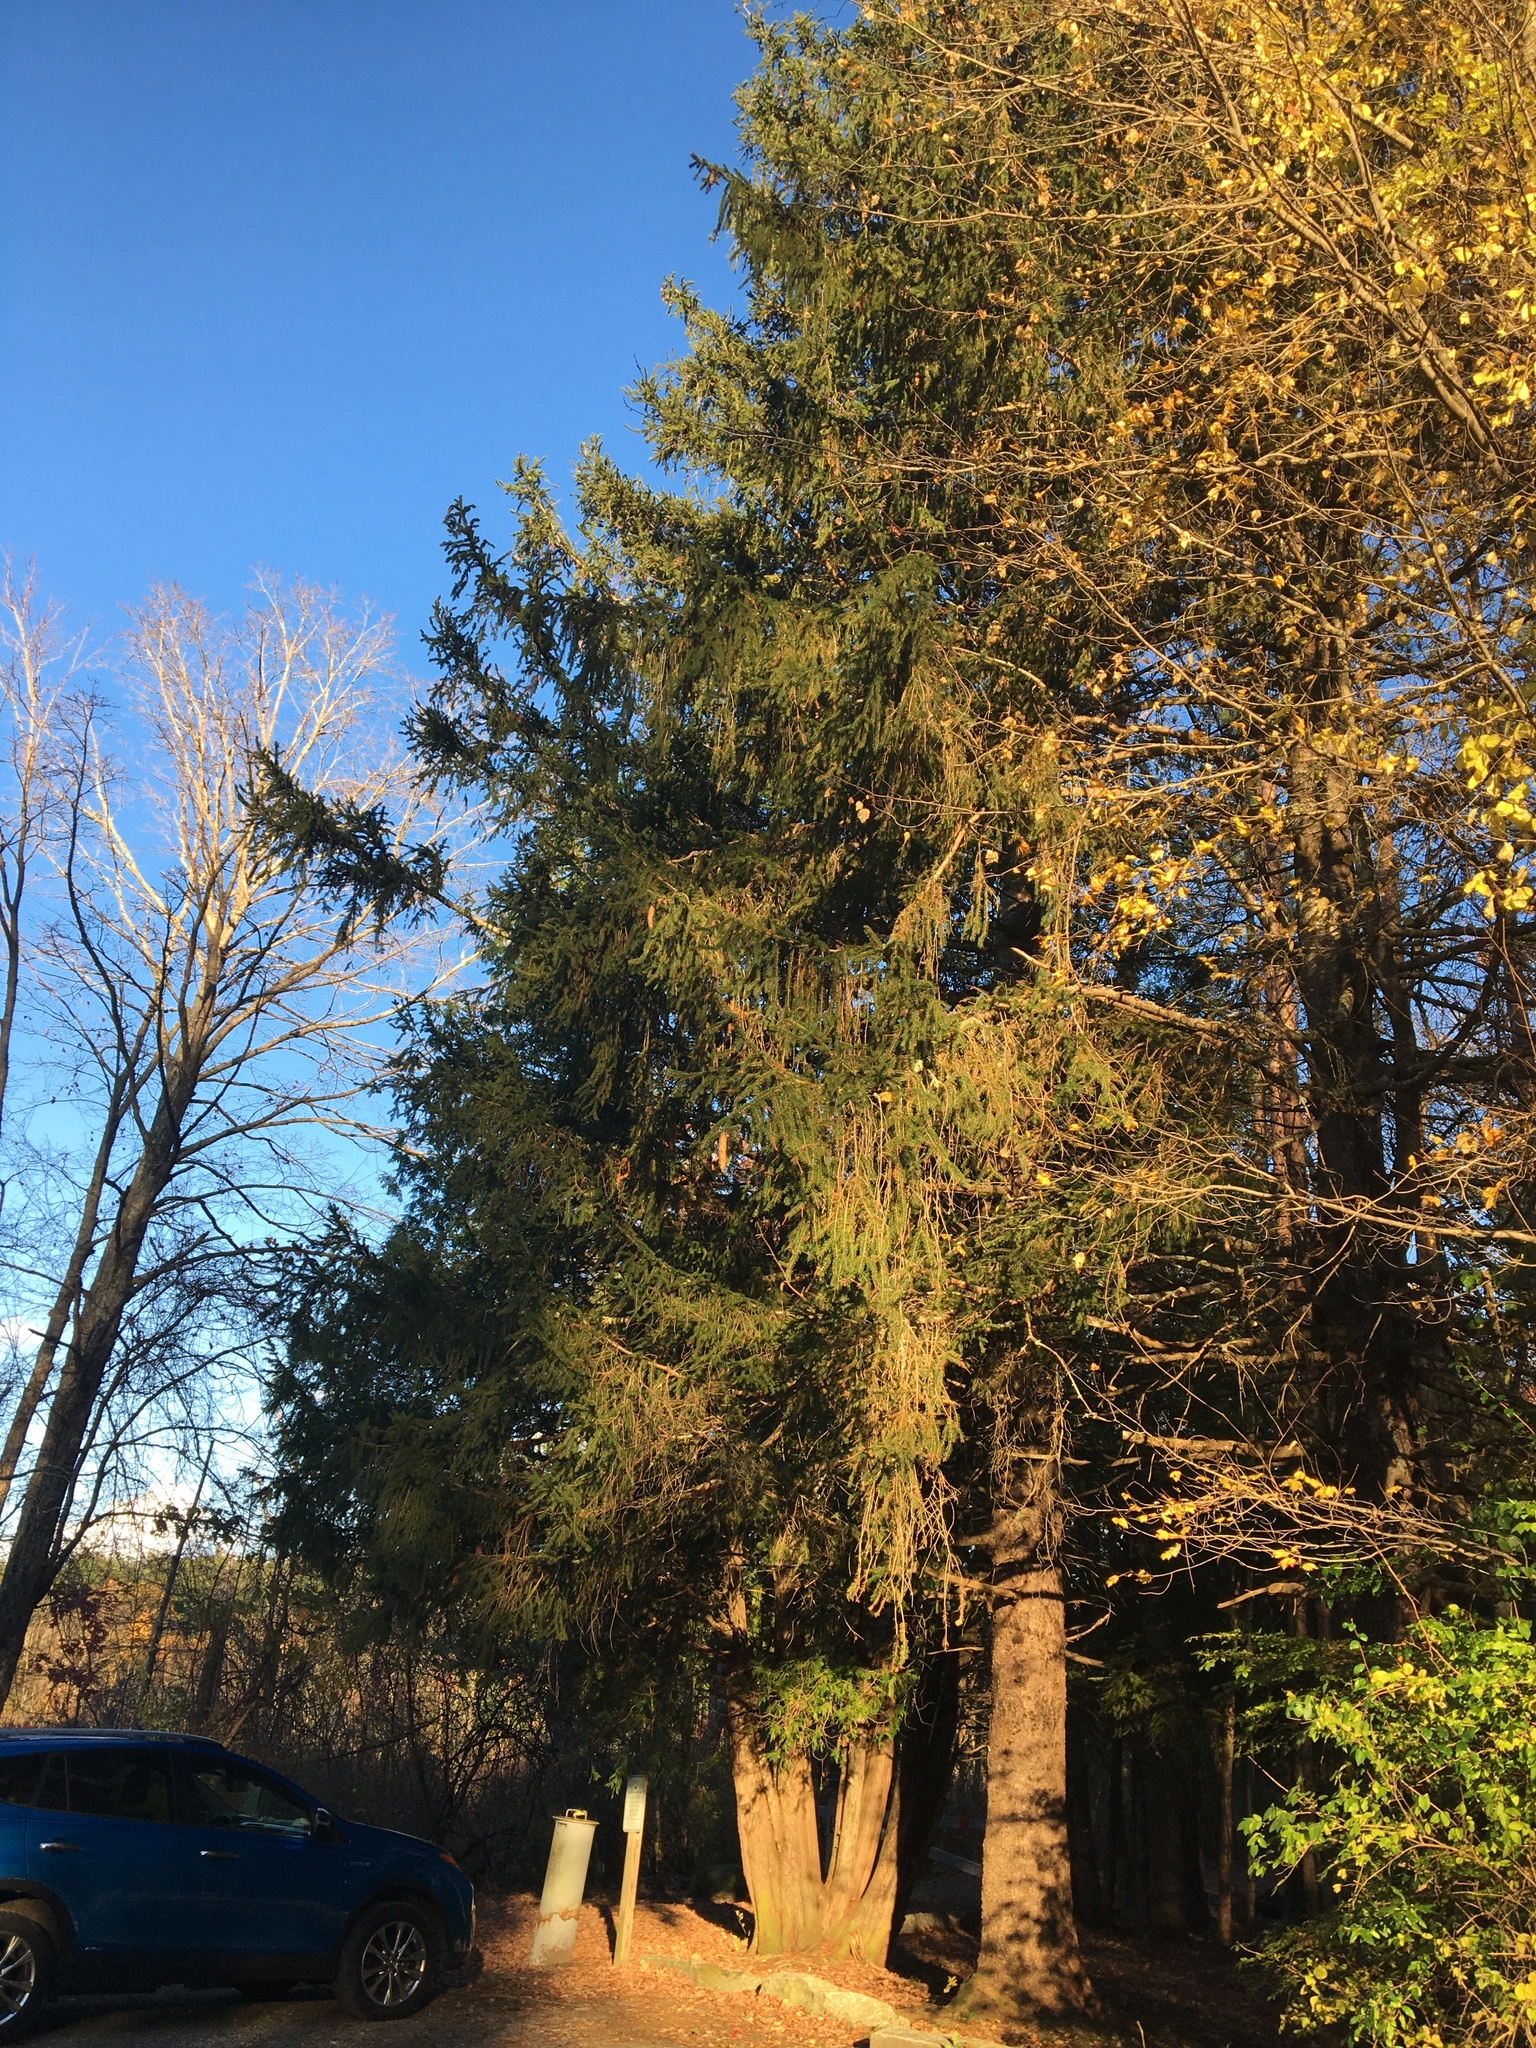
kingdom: Plantae
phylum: Tracheophyta
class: Pinopsida
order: Pinales
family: Pinaceae
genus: Picea
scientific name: Picea abies
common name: Norway spruce
